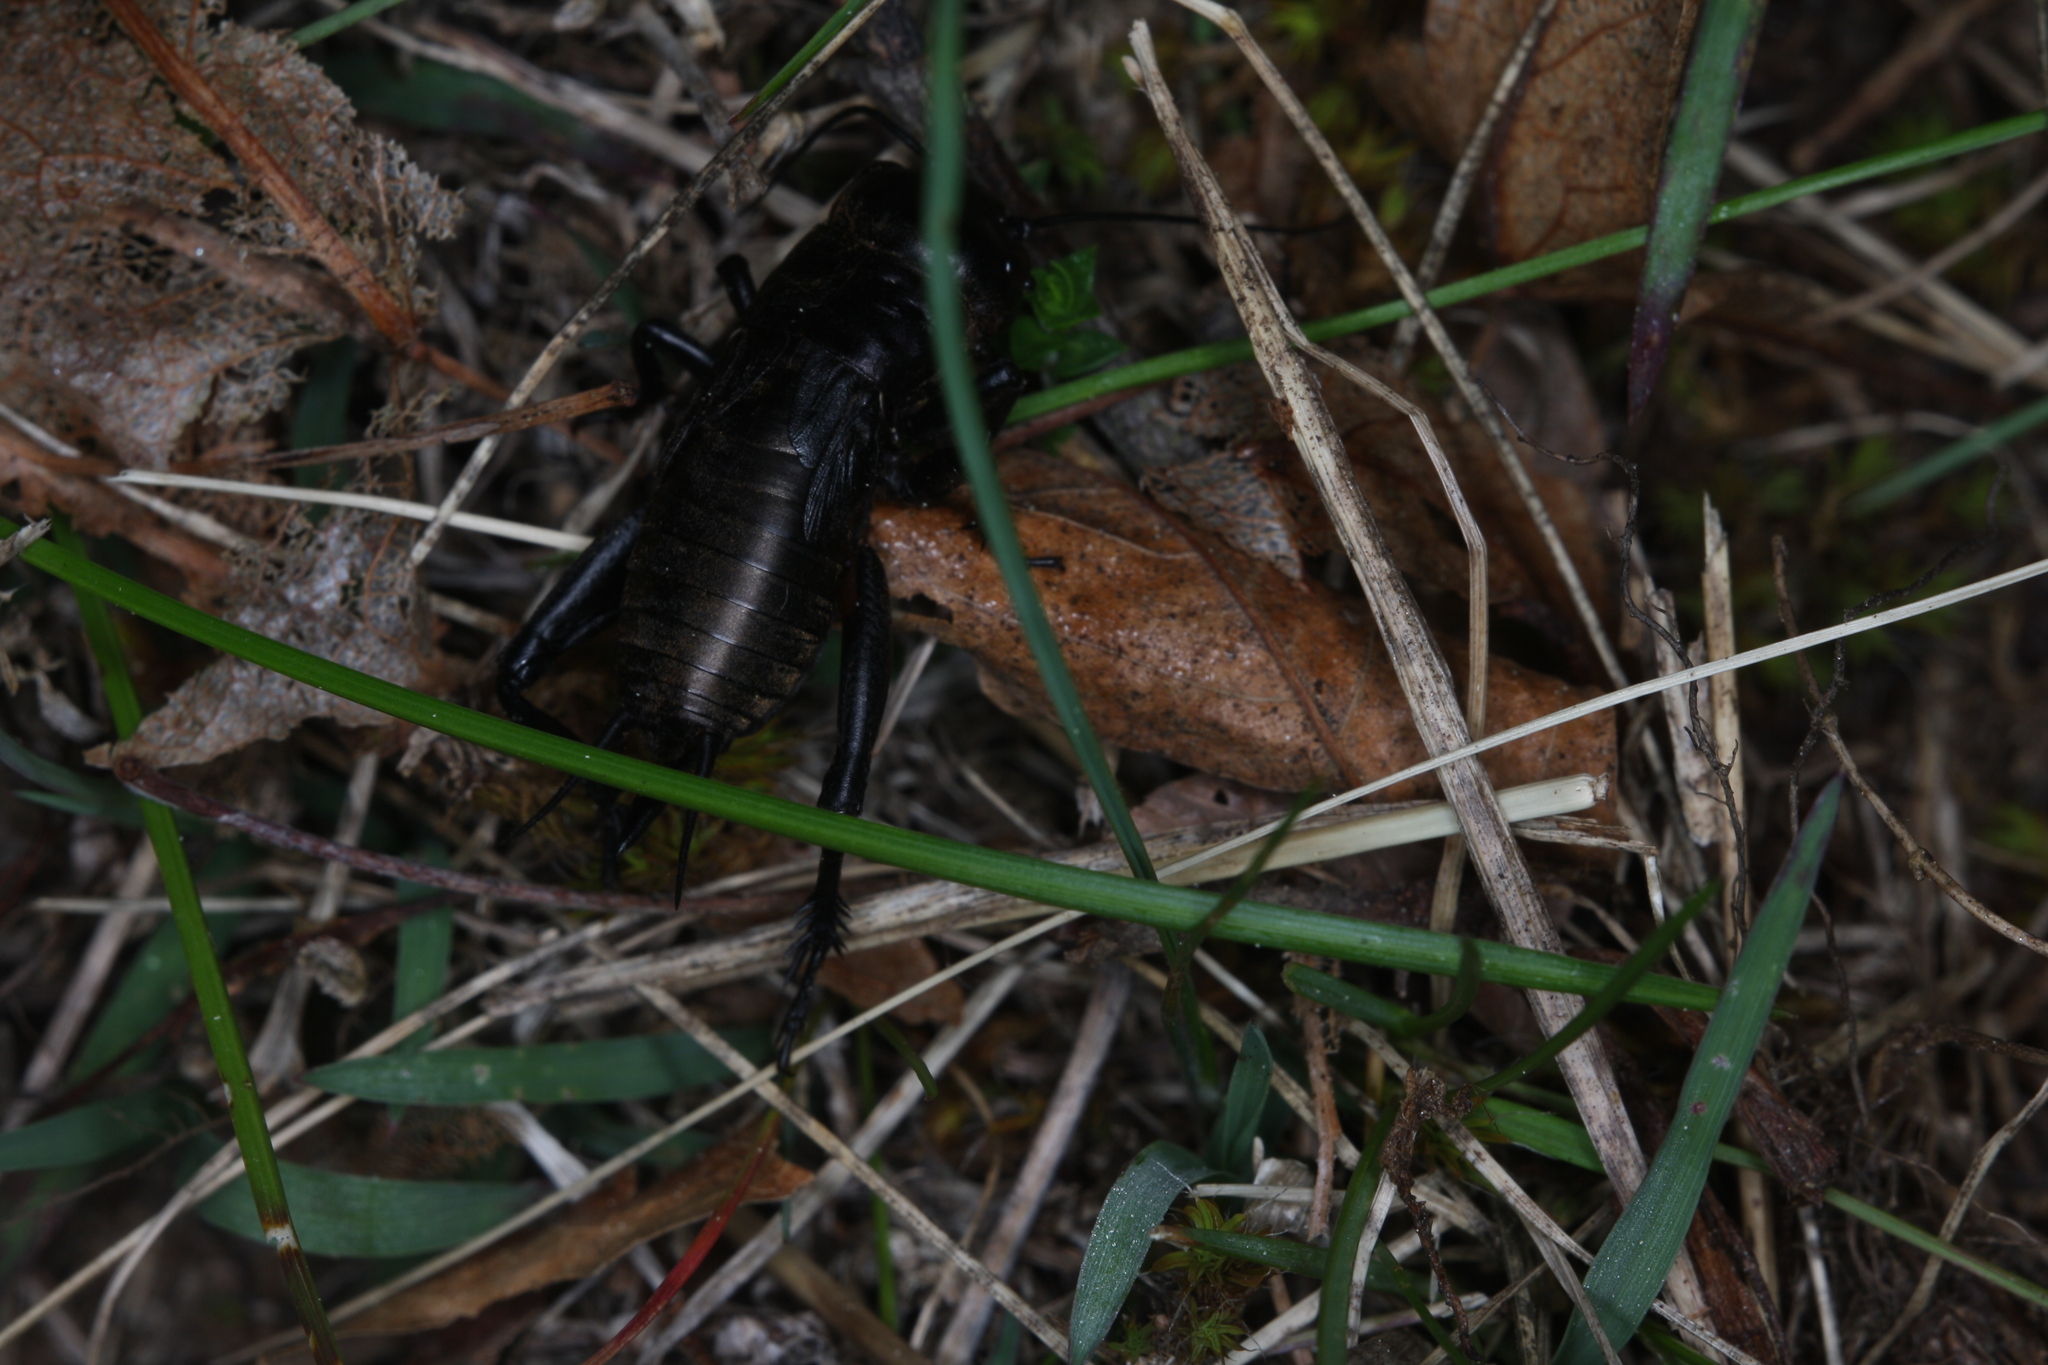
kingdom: Animalia
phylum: Arthropoda
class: Insecta
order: Orthoptera
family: Gryllidae
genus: Gryllus
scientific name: Gryllus campestris
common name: Field cricket
